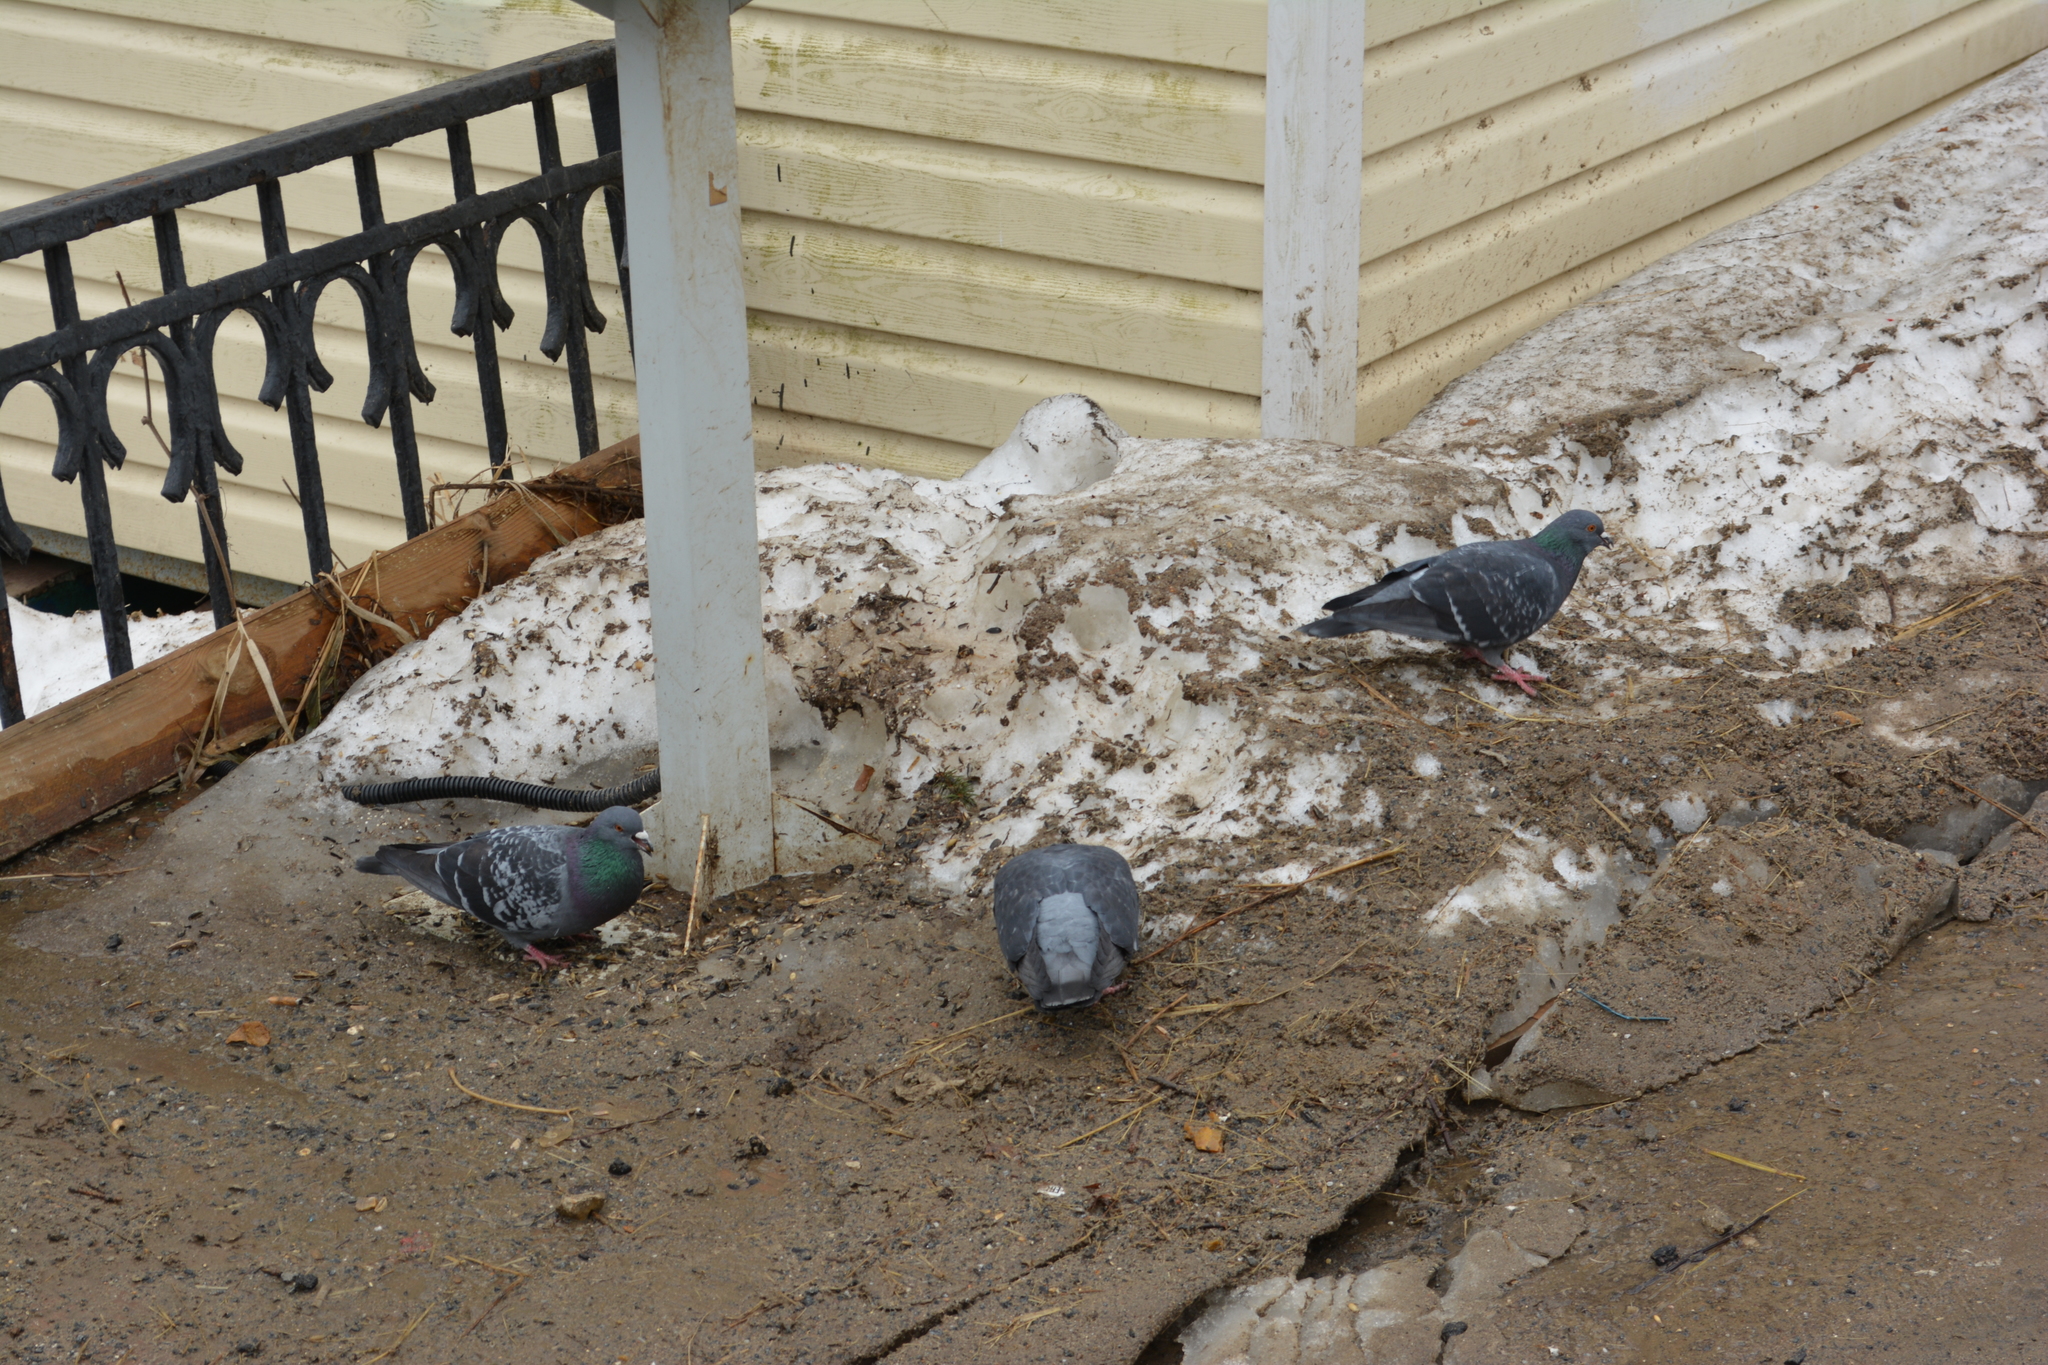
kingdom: Animalia
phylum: Chordata
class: Aves
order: Columbiformes
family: Columbidae
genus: Columba
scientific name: Columba livia
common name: Rock pigeon
